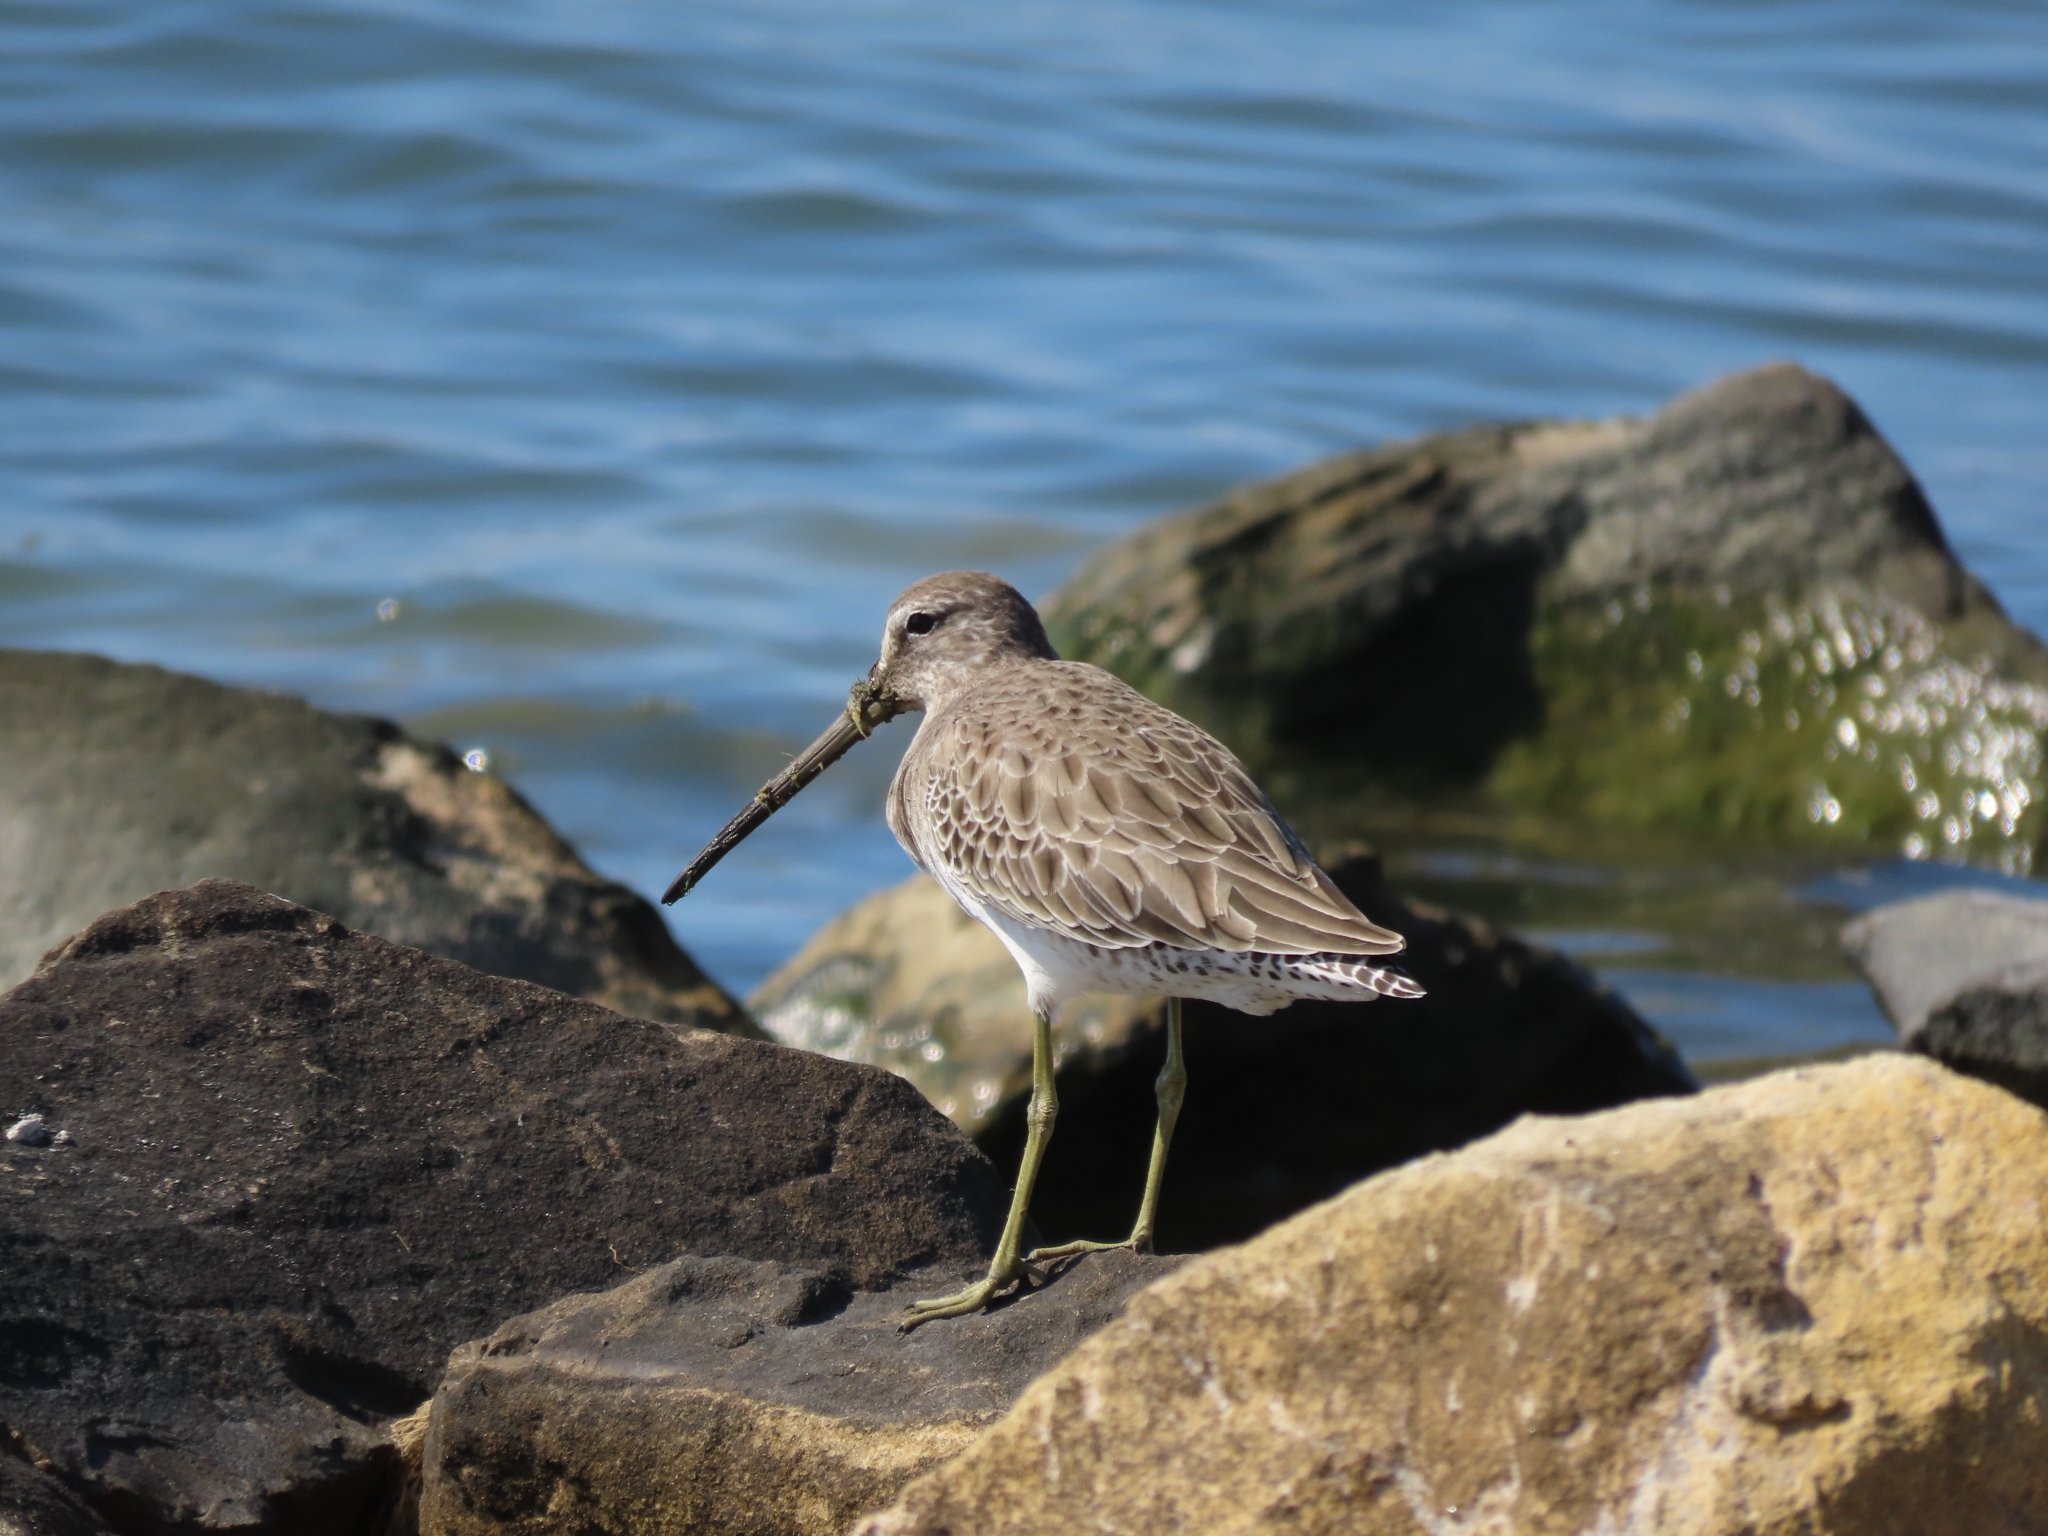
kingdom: Animalia
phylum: Chordata
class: Aves
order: Charadriiformes
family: Scolopacidae
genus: Limnodromus
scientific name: Limnodromus scolopaceus
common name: Long-billed dowitcher
